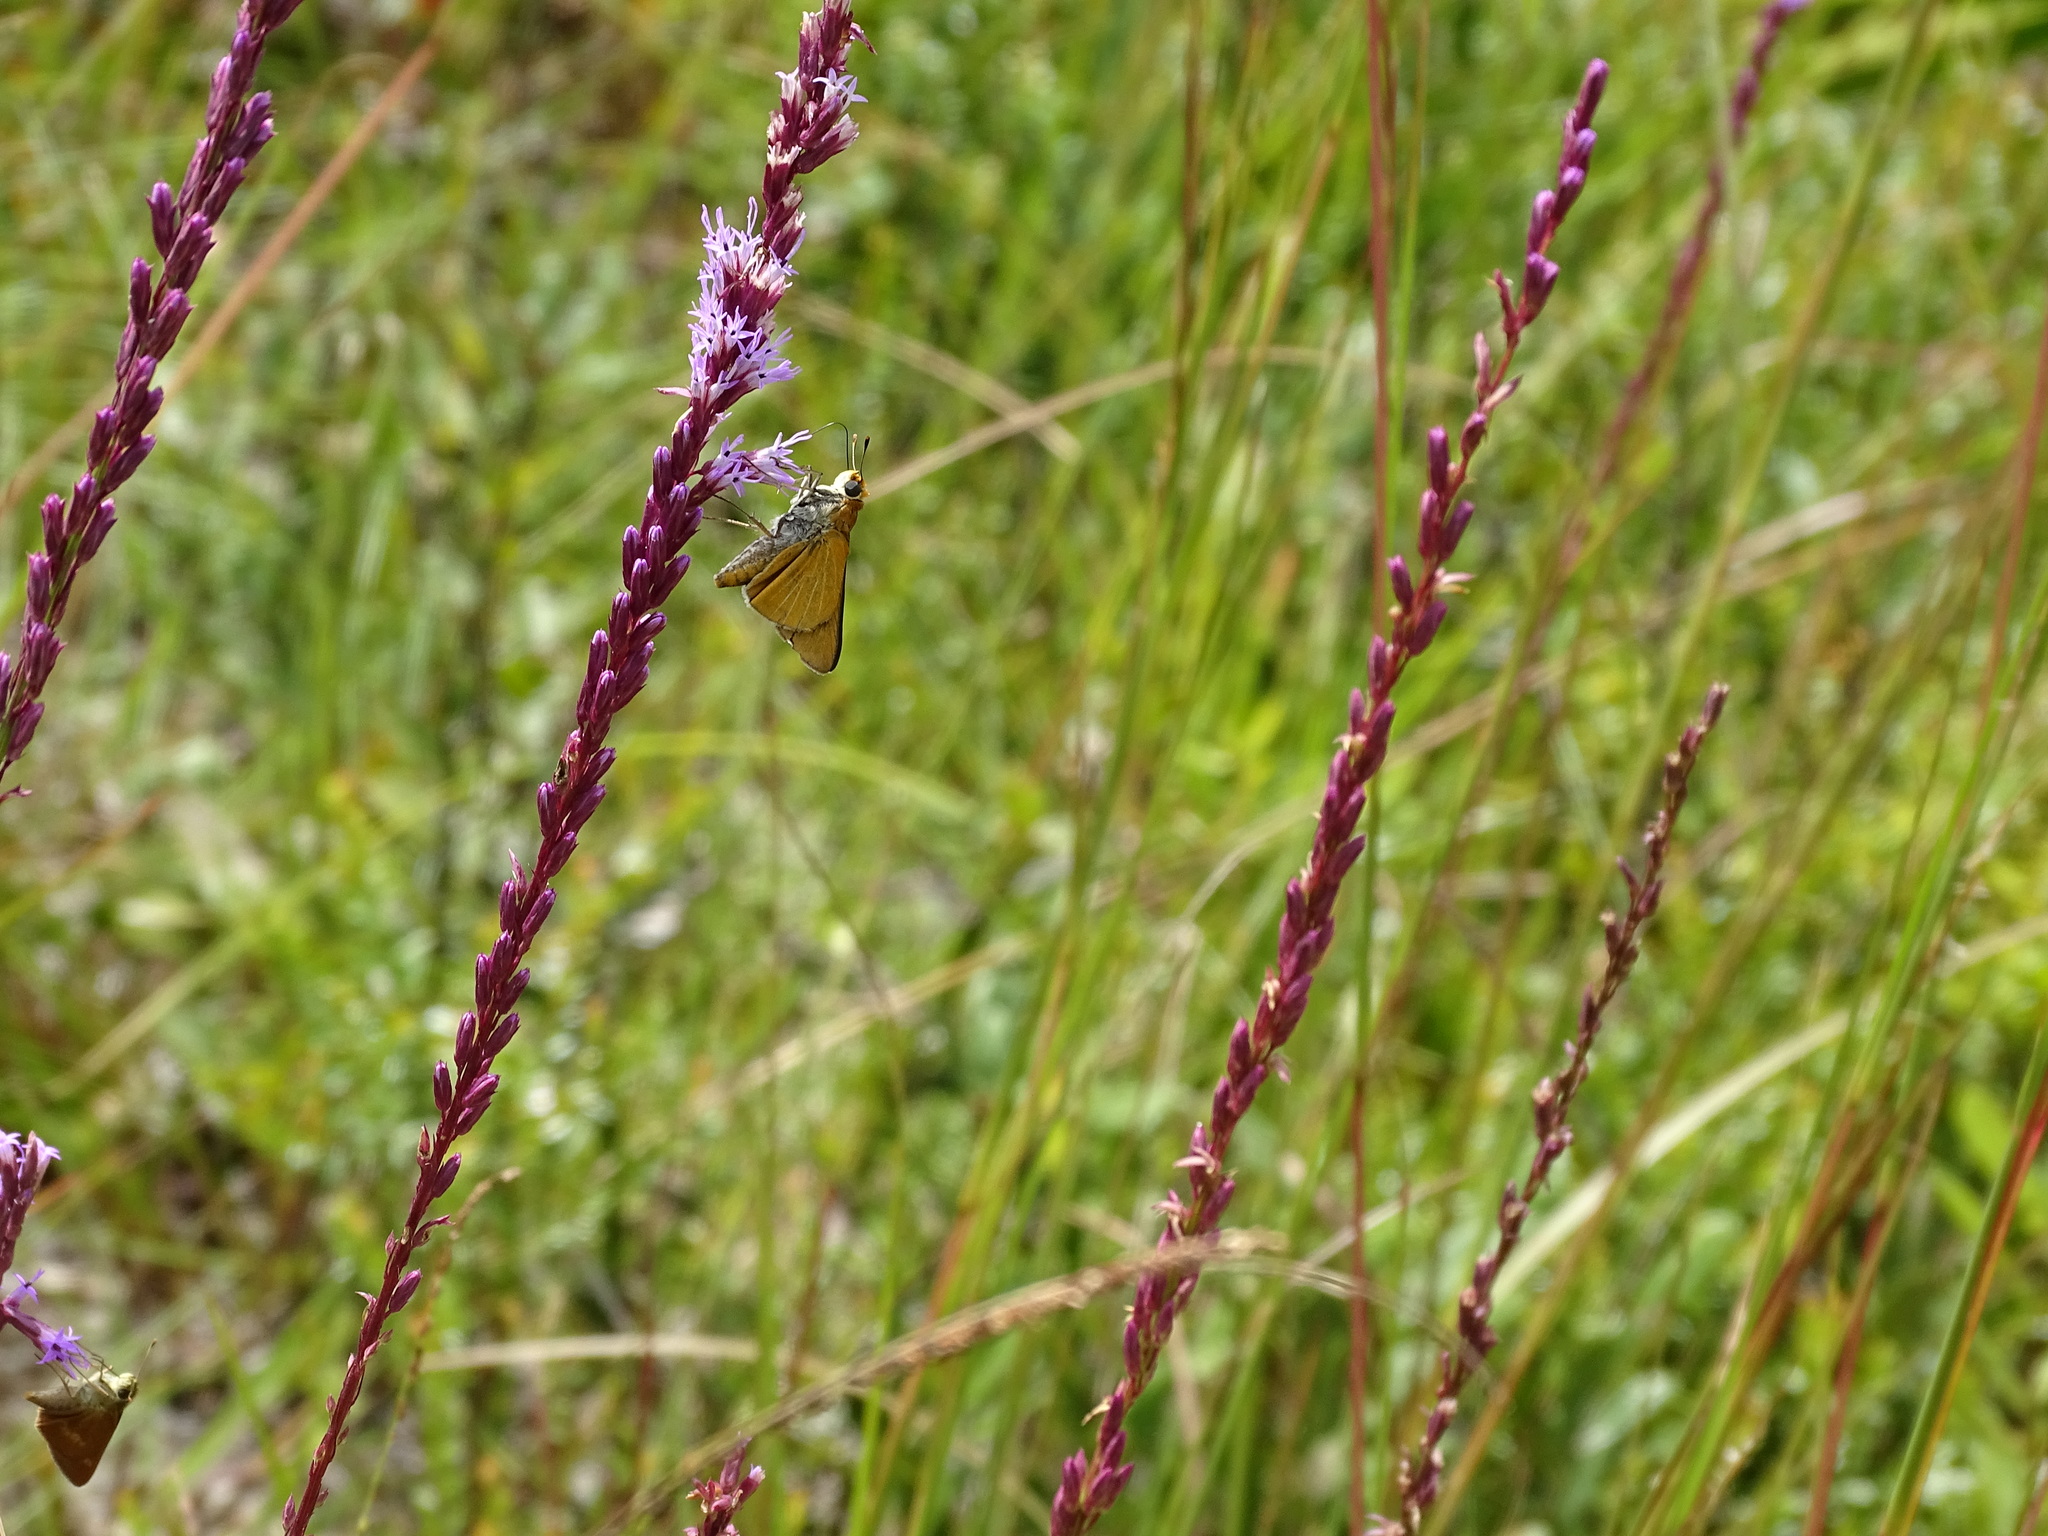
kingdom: Animalia
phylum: Arthropoda
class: Insecta
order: Lepidoptera
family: Hesperiidae
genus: Euphyes
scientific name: Euphyes arpa
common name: Palmetto skipper
